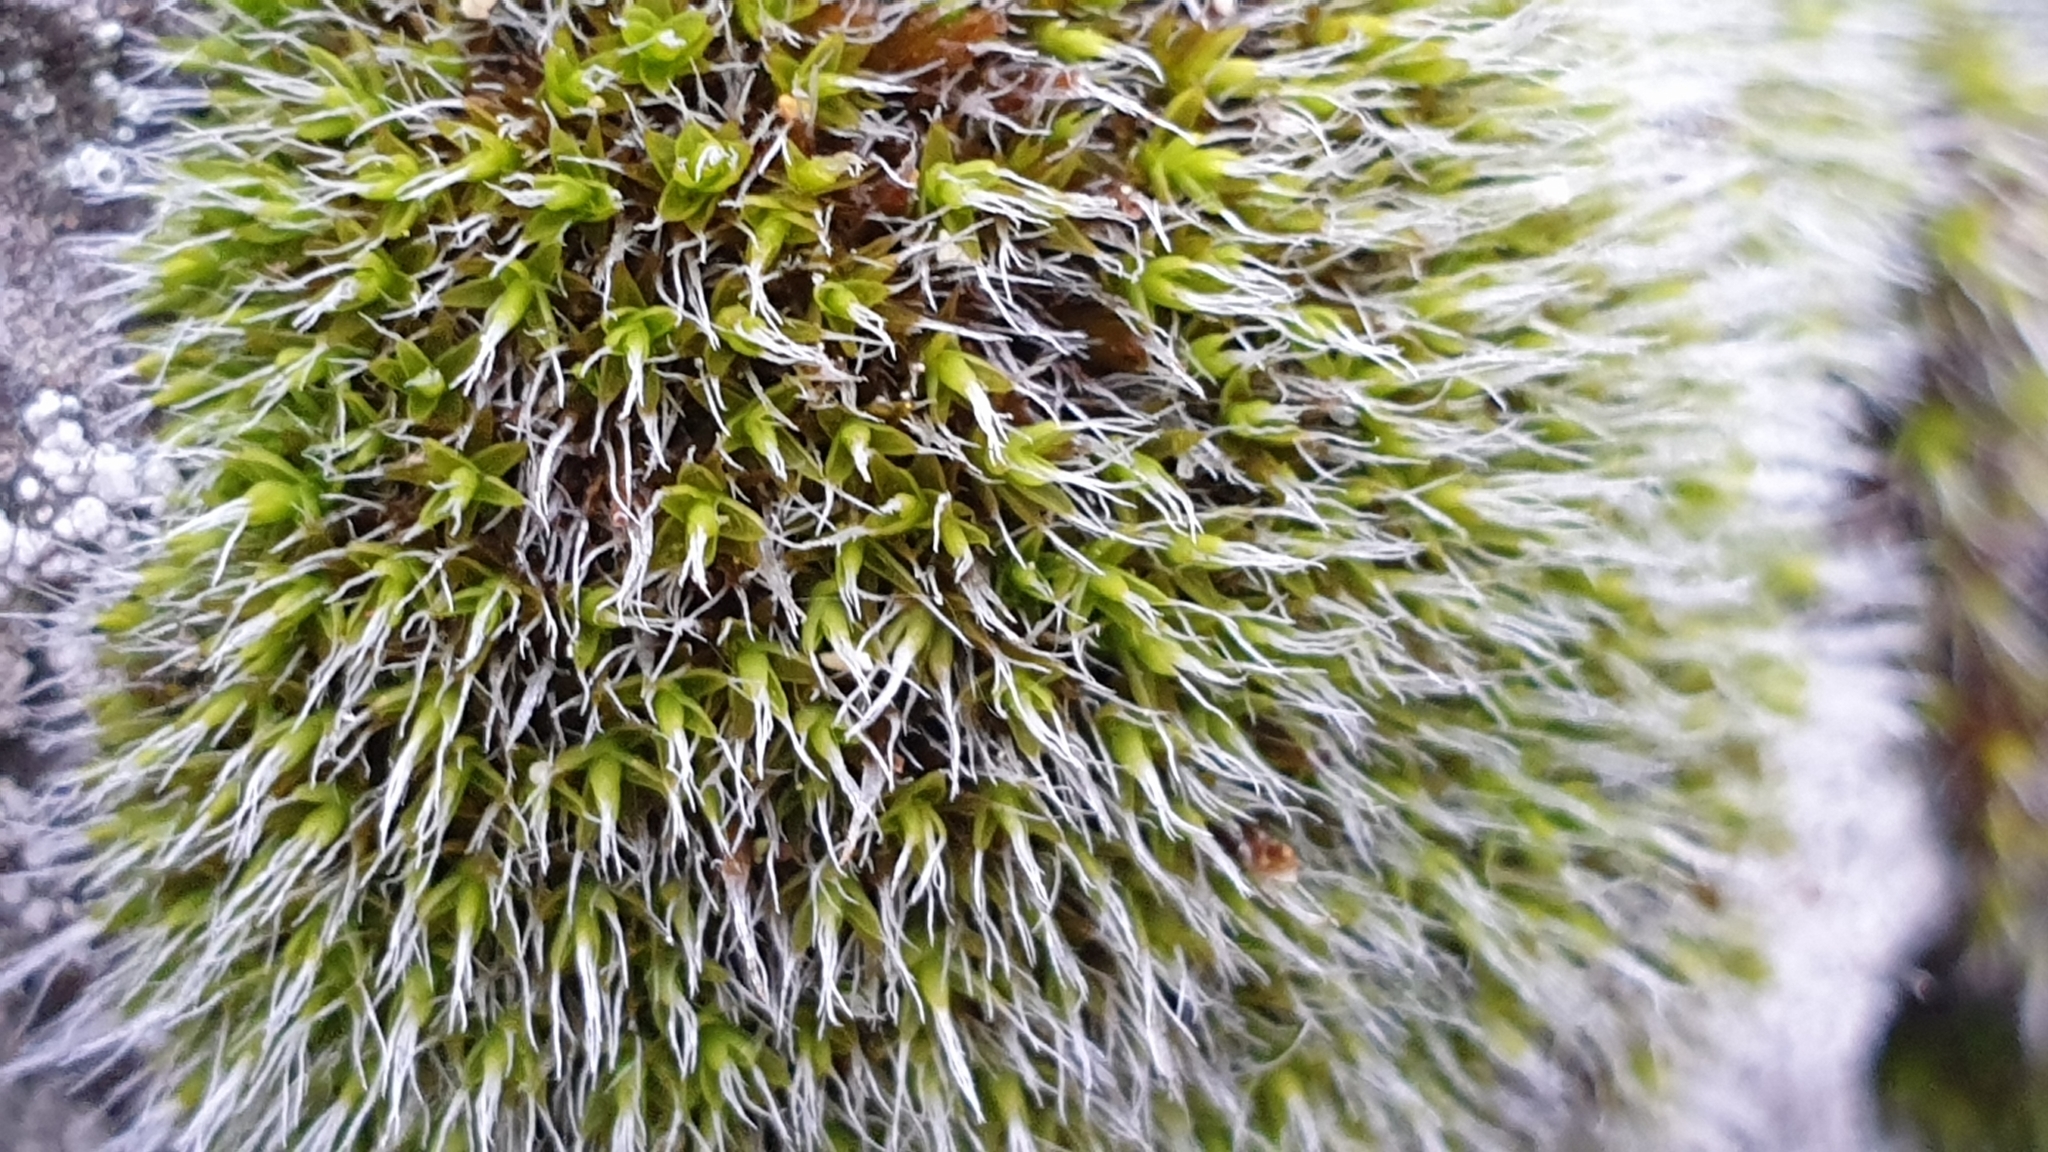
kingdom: Plantae
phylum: Bryophyta
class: Bryopsida
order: Grimmiales
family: Grimmiaceae
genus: Grimmia
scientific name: Grimmia pulvinata
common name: Grey-cushioned grimmia
